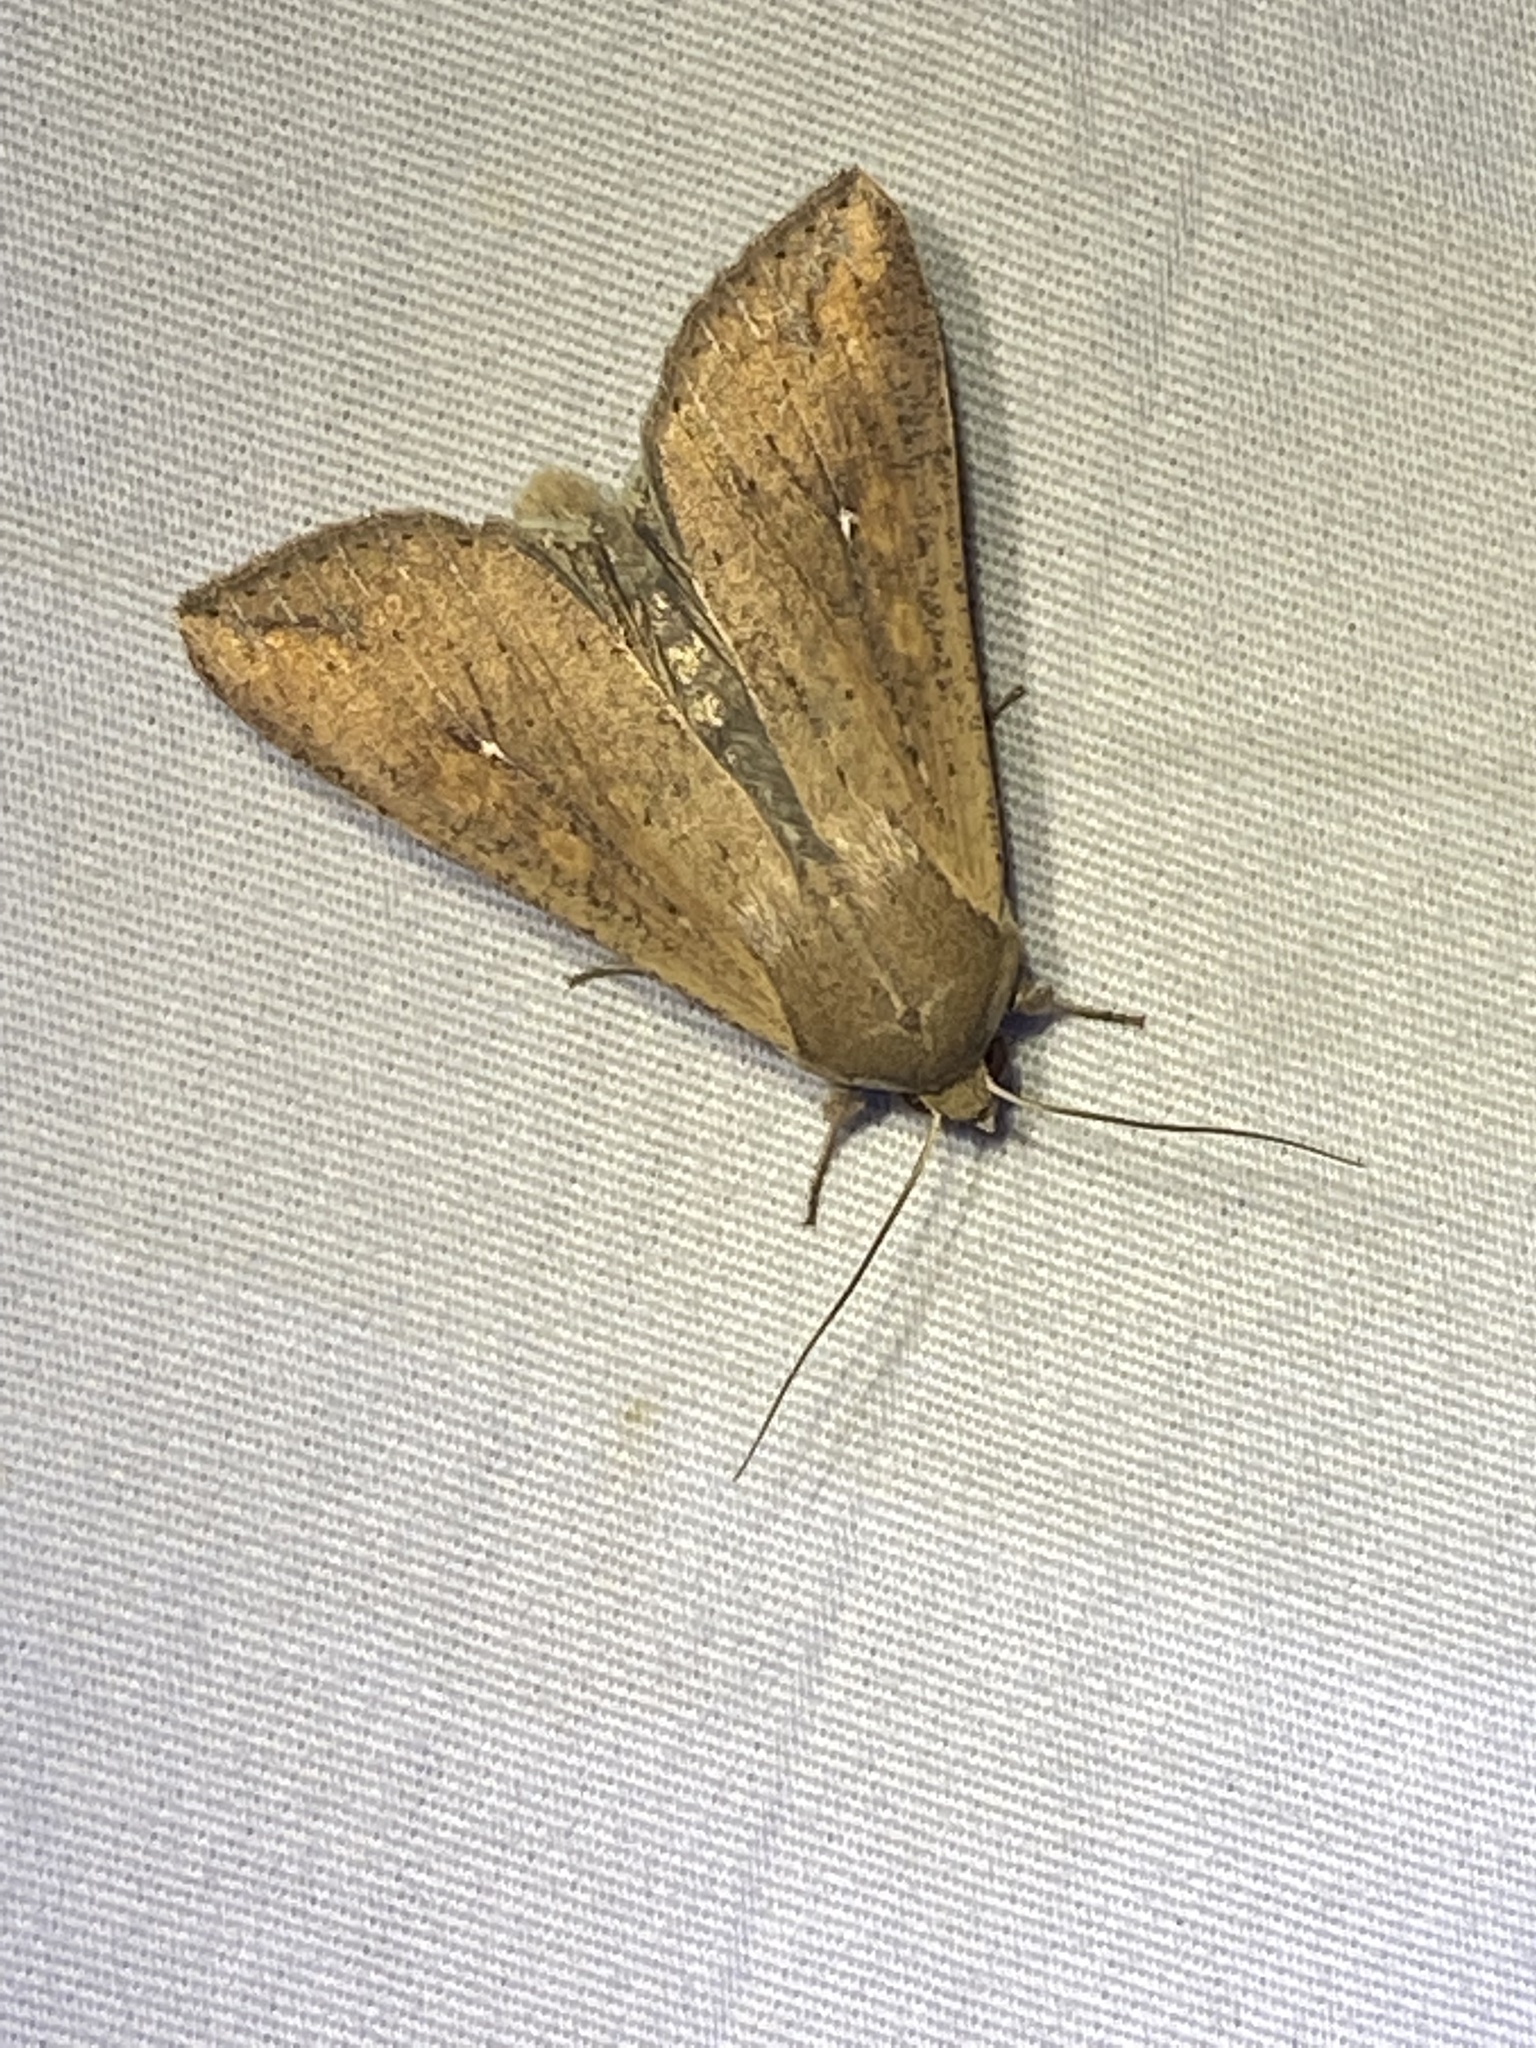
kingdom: Animalia
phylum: Arthropoda
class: Insecta
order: Lepidoptera
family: Noctuidae
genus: Mythimna
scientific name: Mythimna unipuncta
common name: White-speck
